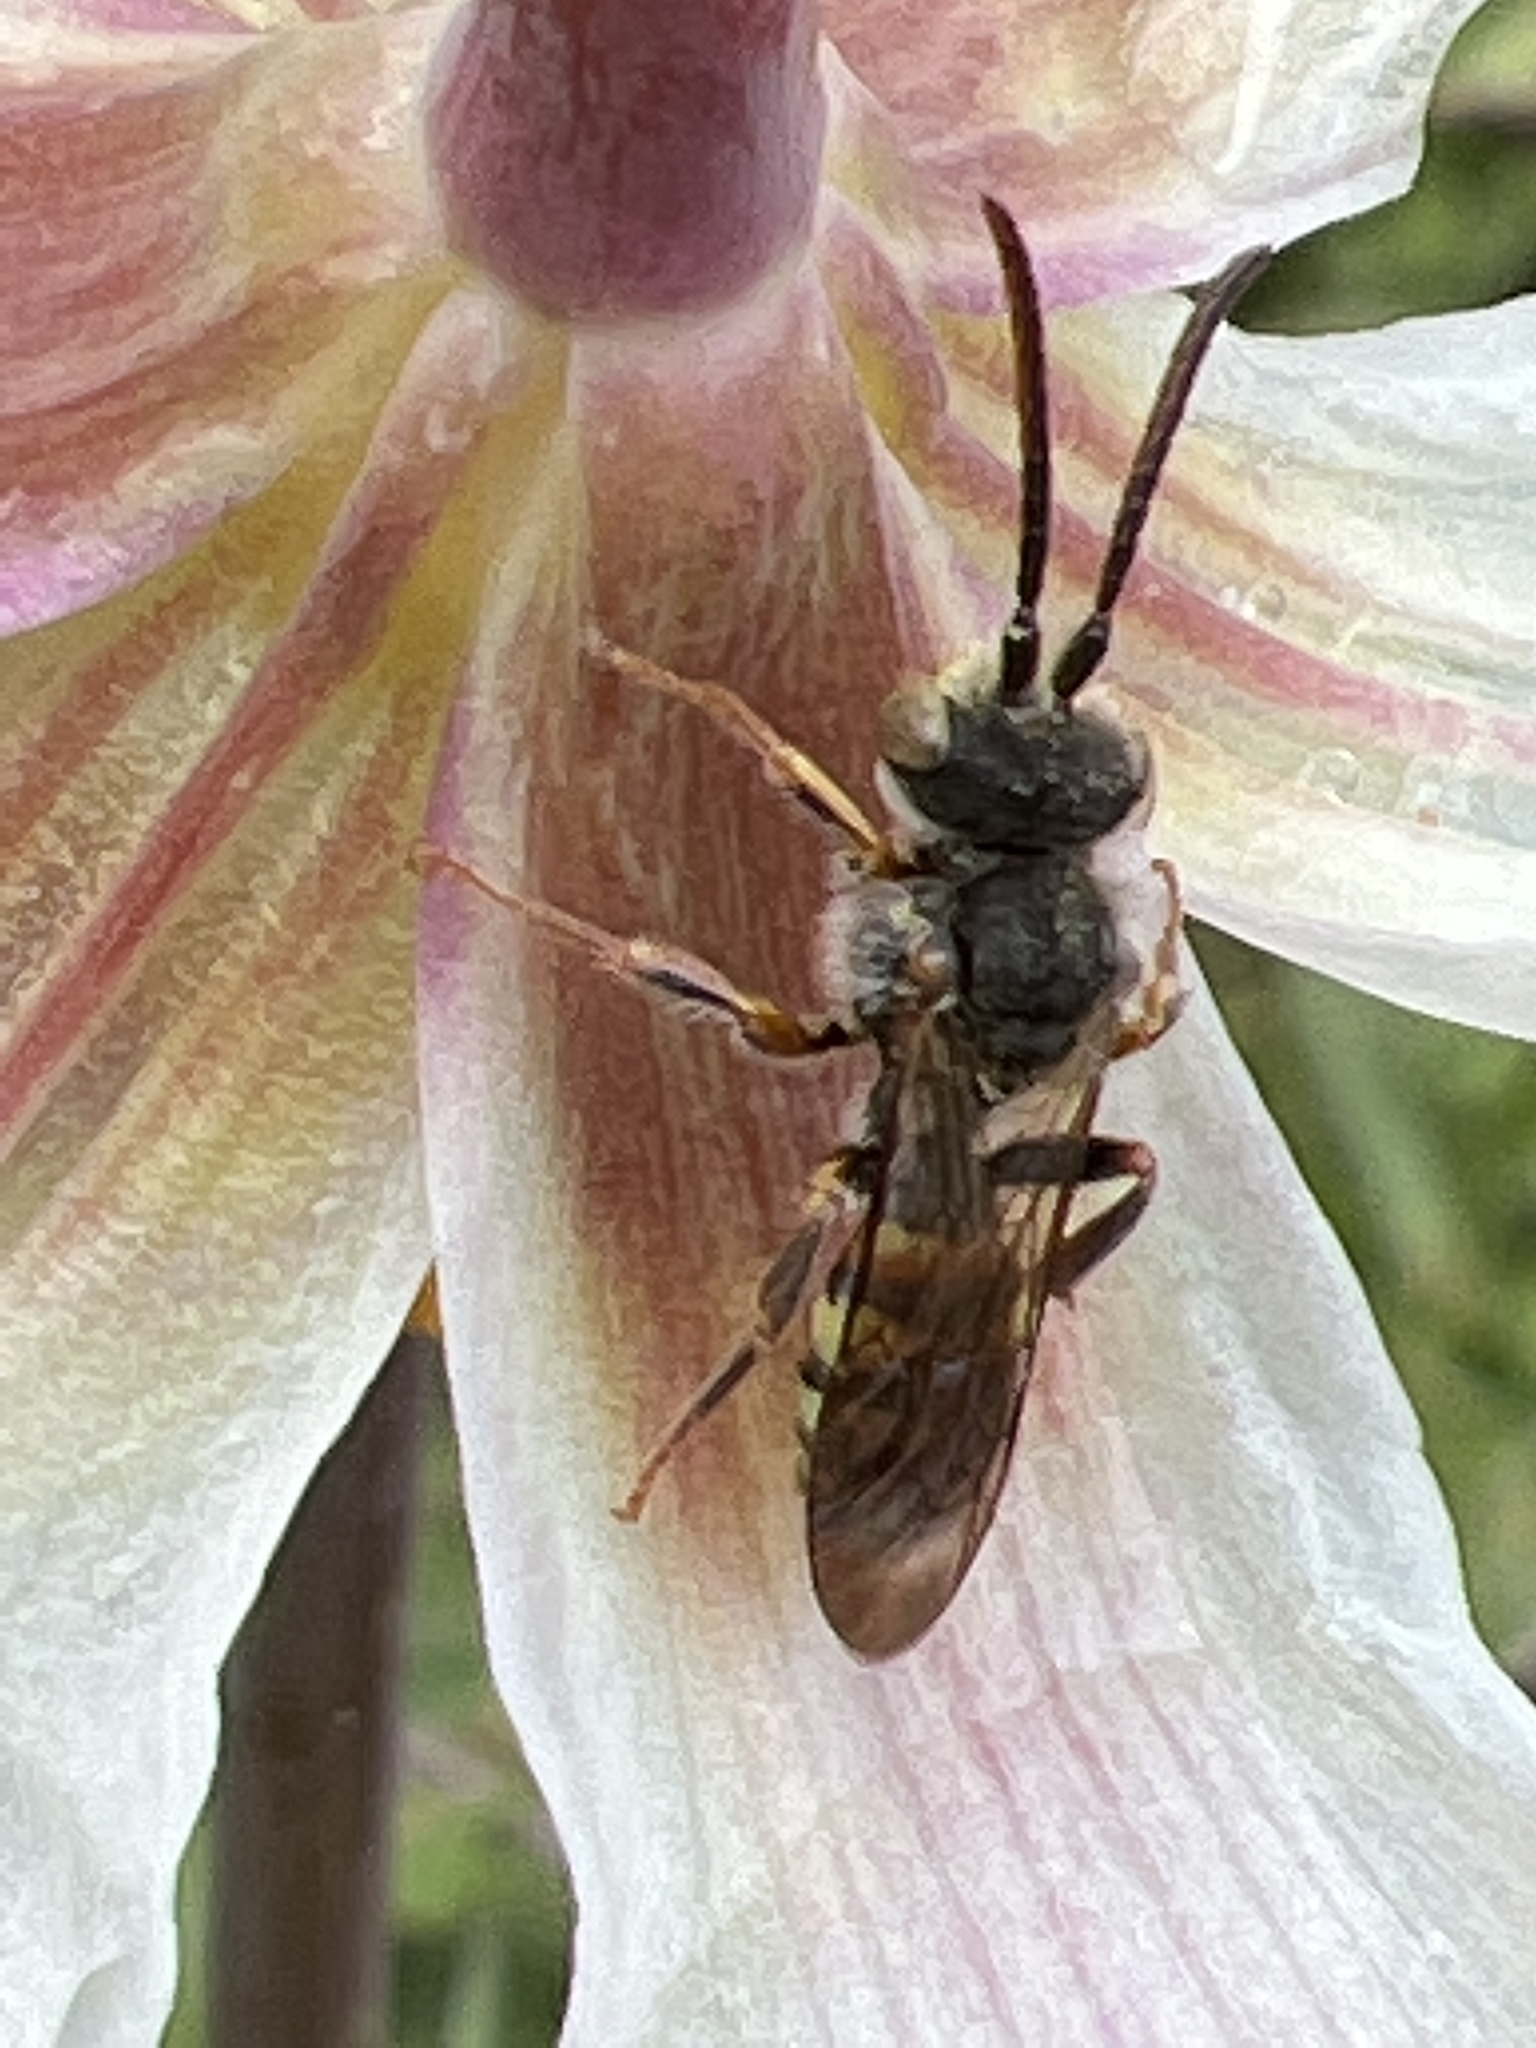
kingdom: Animalia
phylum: Arthropoda
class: Insecta
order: Hymenoptera
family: Apidae
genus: Nomada
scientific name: Nomada
